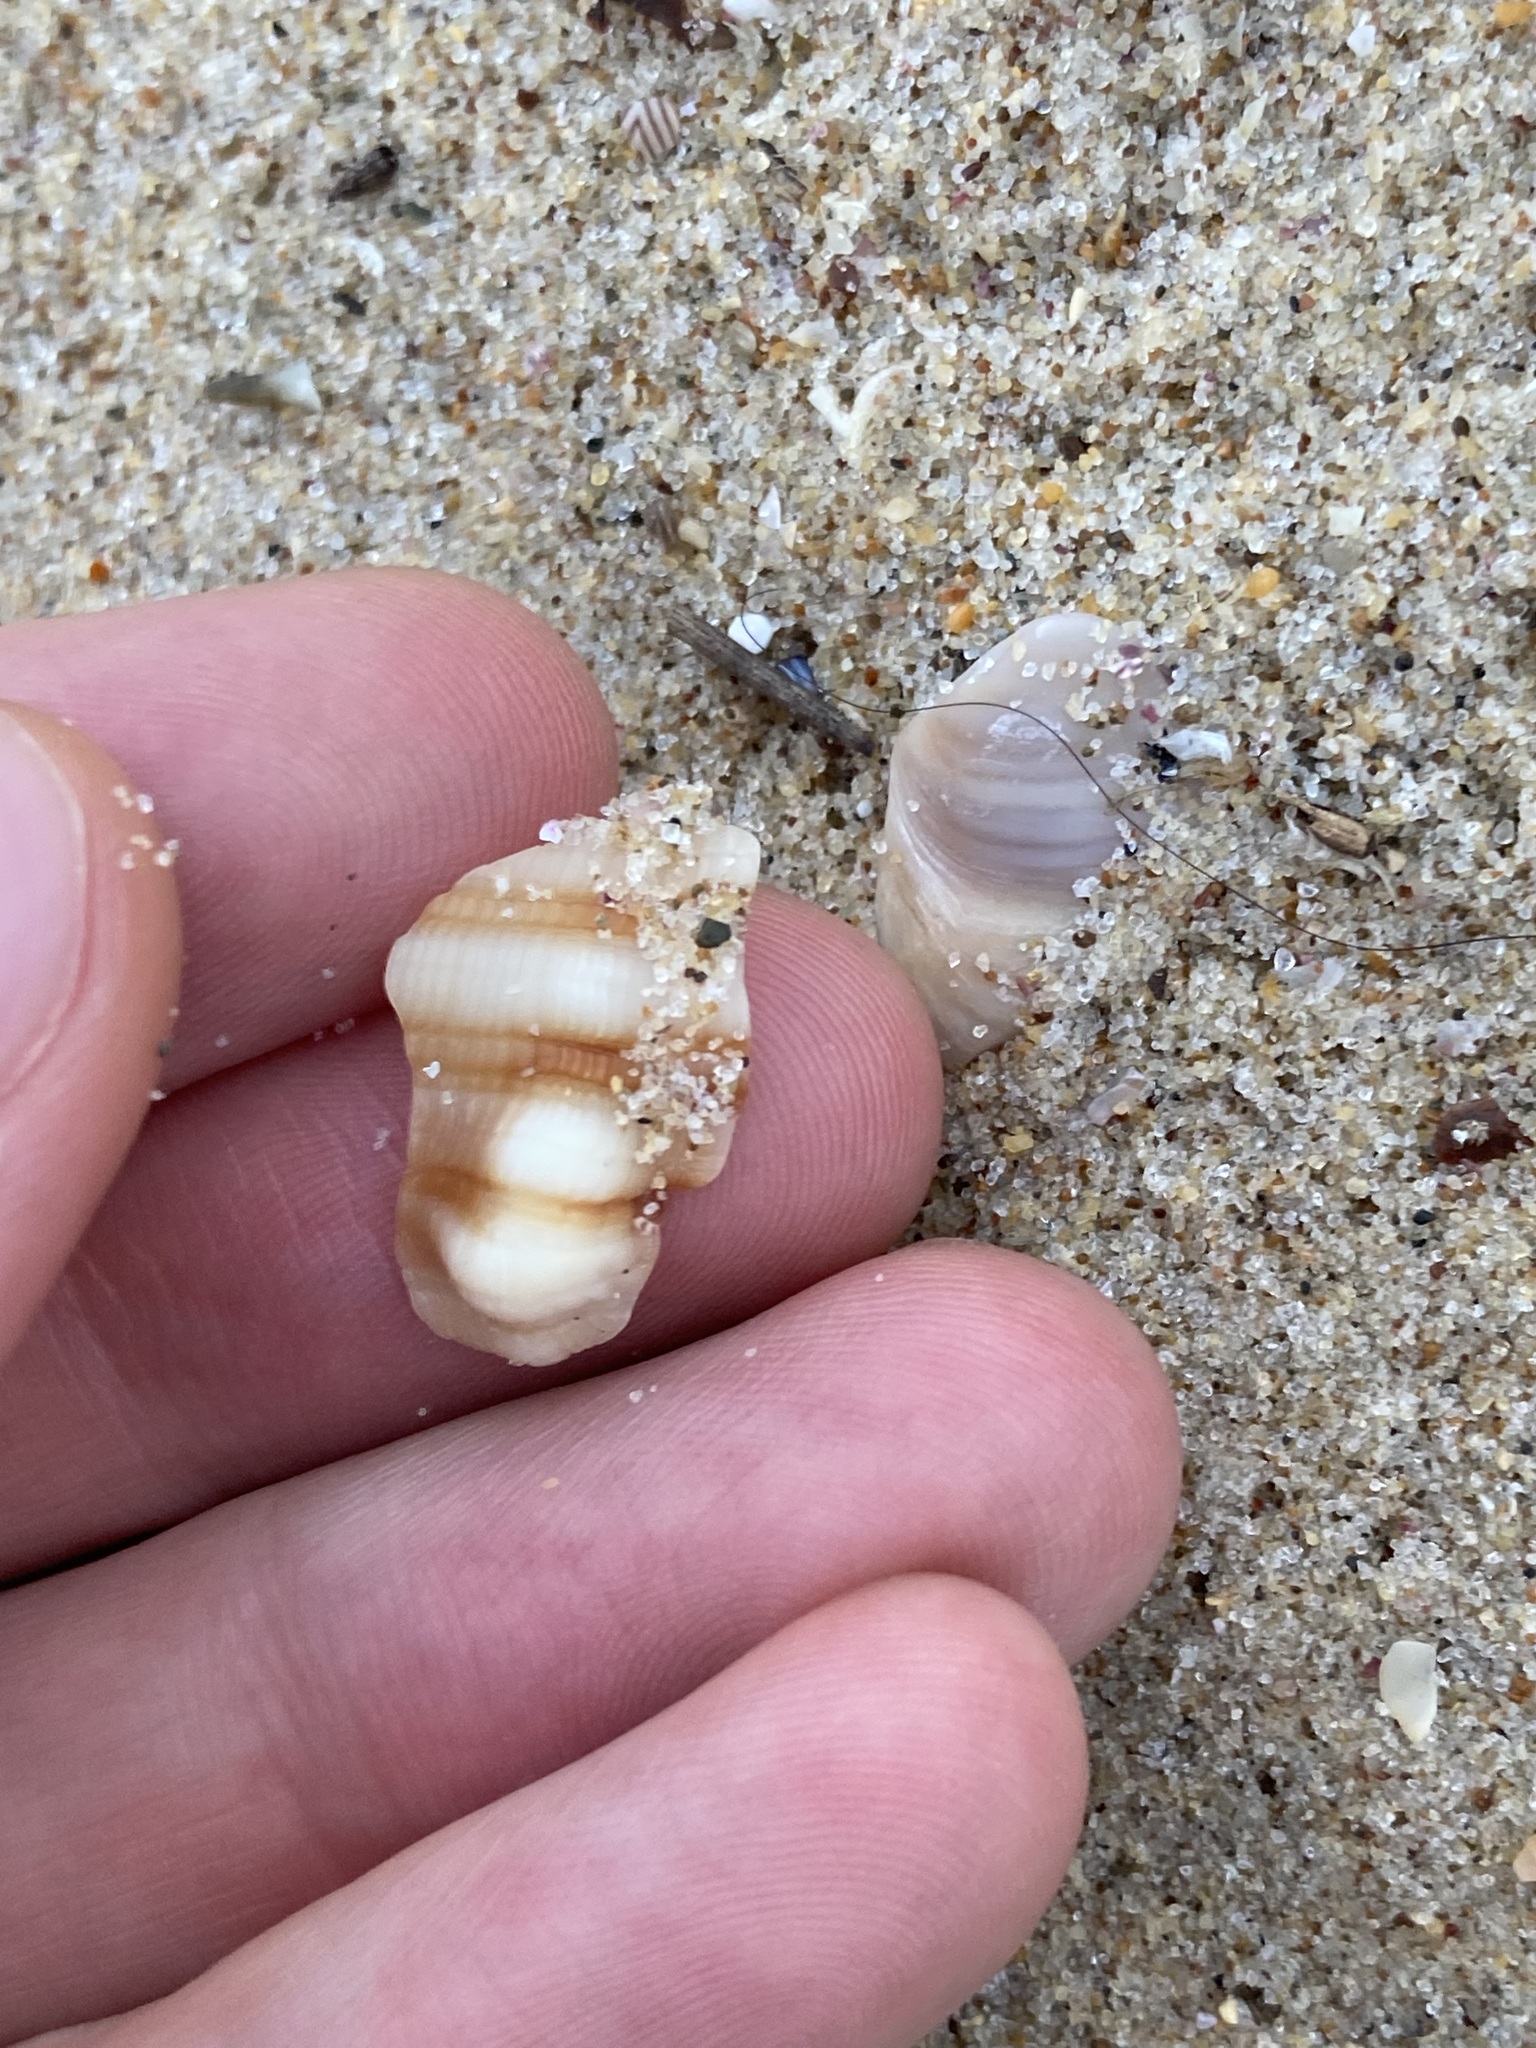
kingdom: Animalia
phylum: Mollusca
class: Gastropoda
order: Littorinimorpha
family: Cymatiidae
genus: Cabestana
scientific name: Cabestana spengleri
